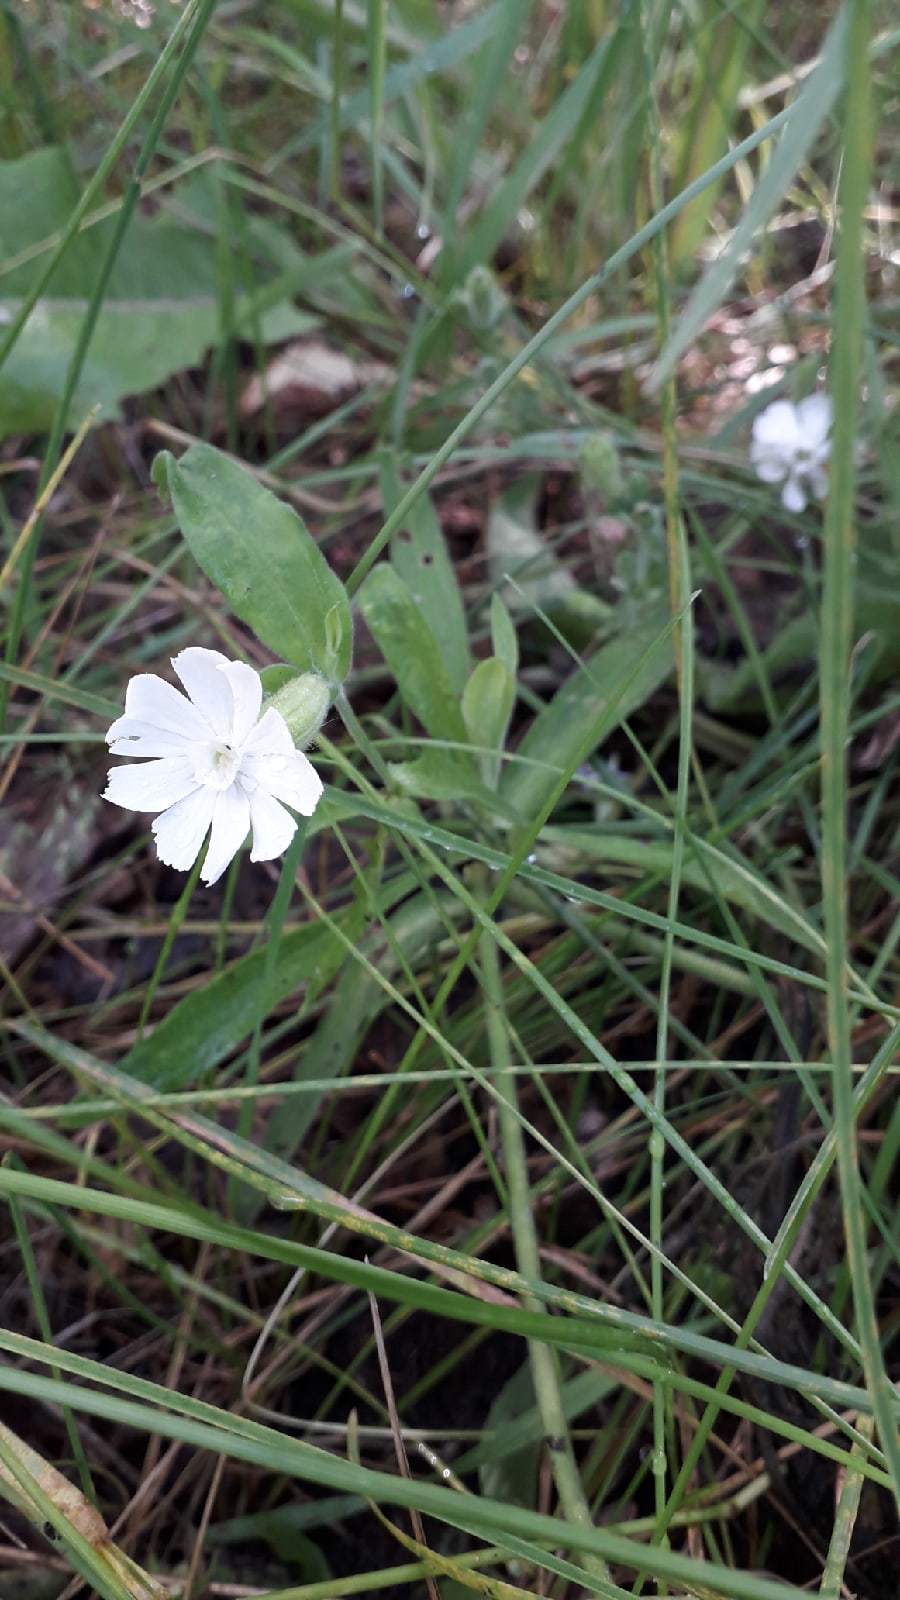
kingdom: Plantae
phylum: Tracheophyta
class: Magnoliopsida
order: Caryophyllales
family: Caryophyllaceae
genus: Silene
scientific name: Silene latifolia
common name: White campion
